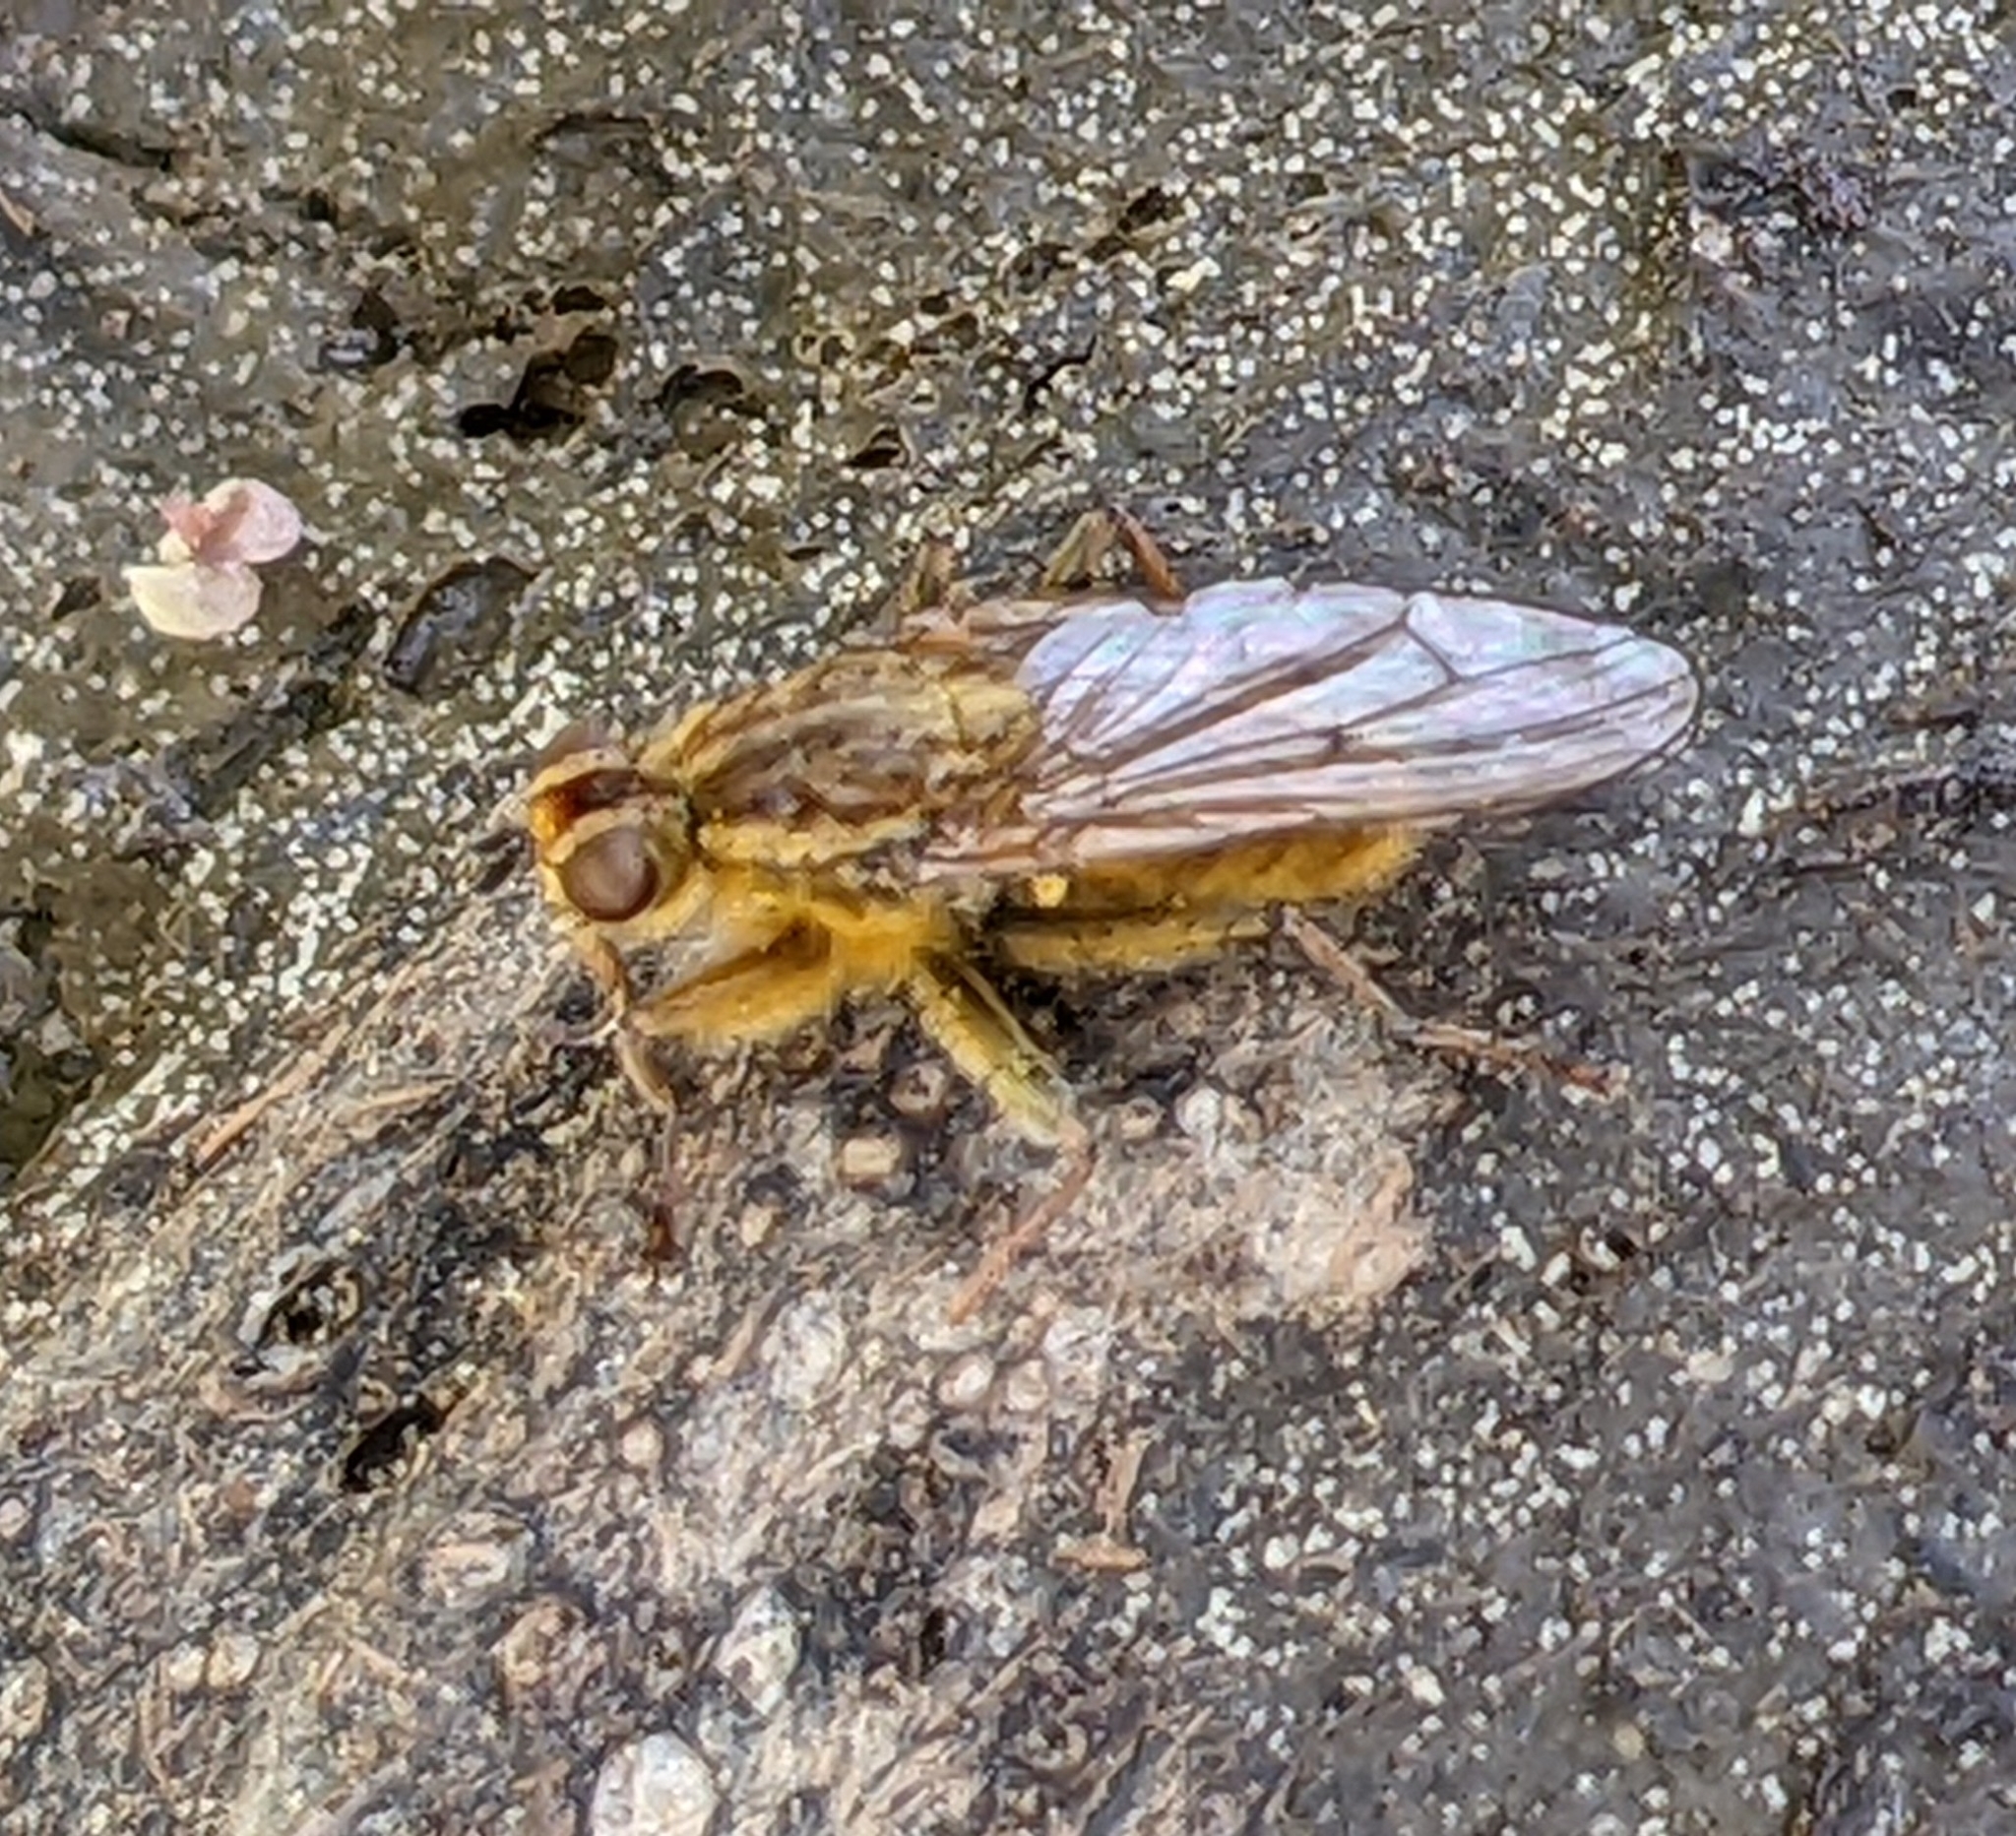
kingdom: Animalia
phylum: Arthropoda
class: Insecta
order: Diptera
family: Scathophagidae
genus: Scathophaga
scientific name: Scathophaga stercoraria
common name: Yellow dung fly
